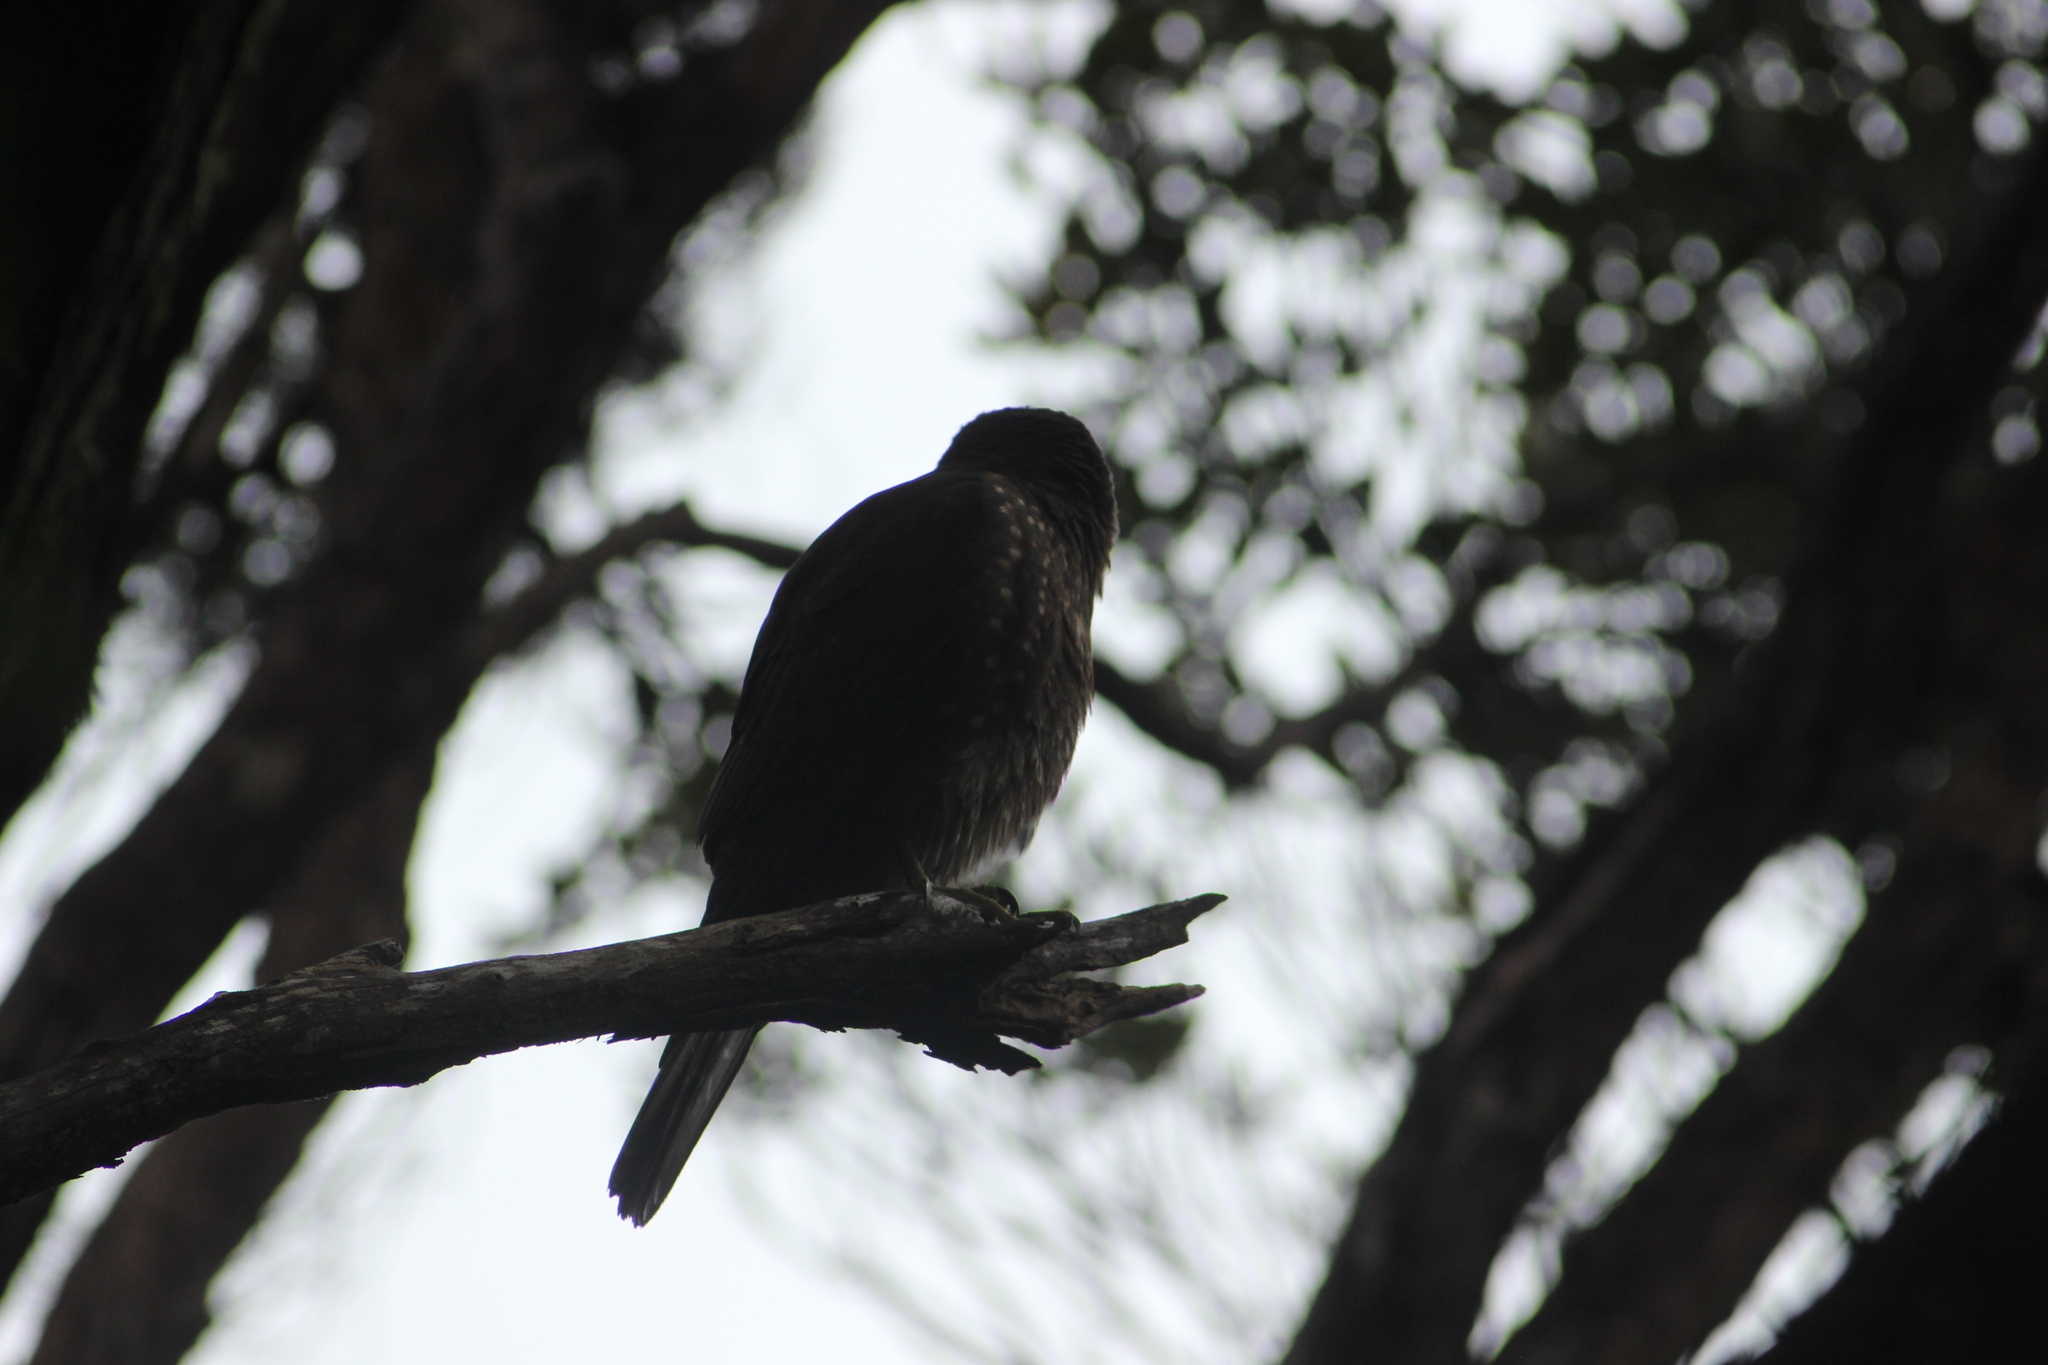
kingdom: Animalia
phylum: Chordata
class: Aves
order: Falconiformes
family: Falconidae
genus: Falco
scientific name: Falco novaeseelandiae
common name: New zealand falcon
